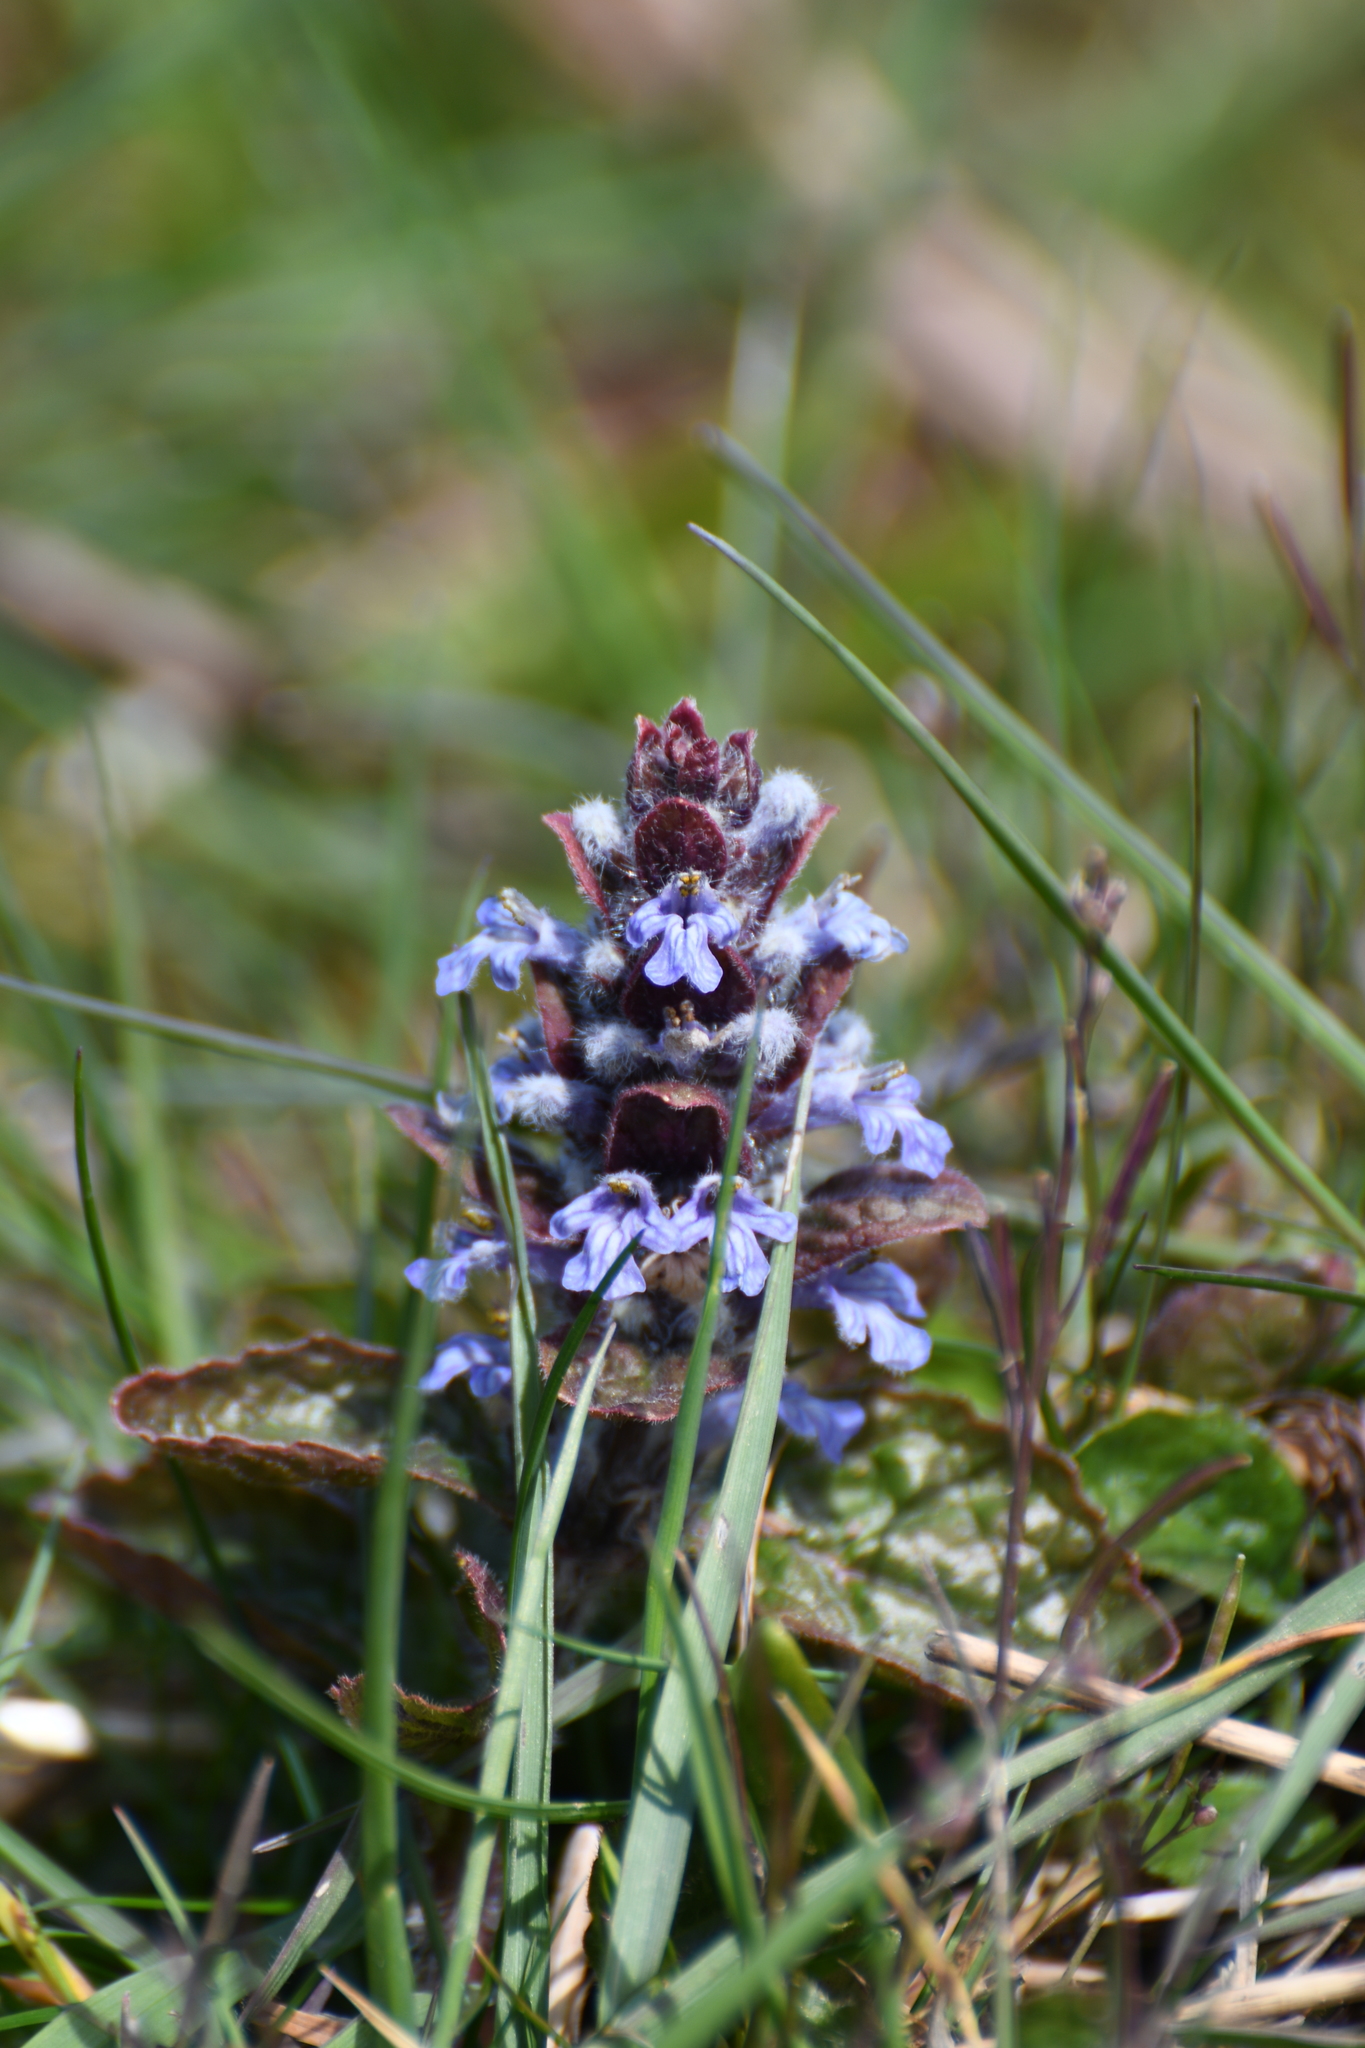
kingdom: Plantae
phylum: Tracheophyta
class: Magnoliopsida
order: Lamiales
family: Lamiaceae
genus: Ajuga
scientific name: Ajuga reptans
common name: Bugle
